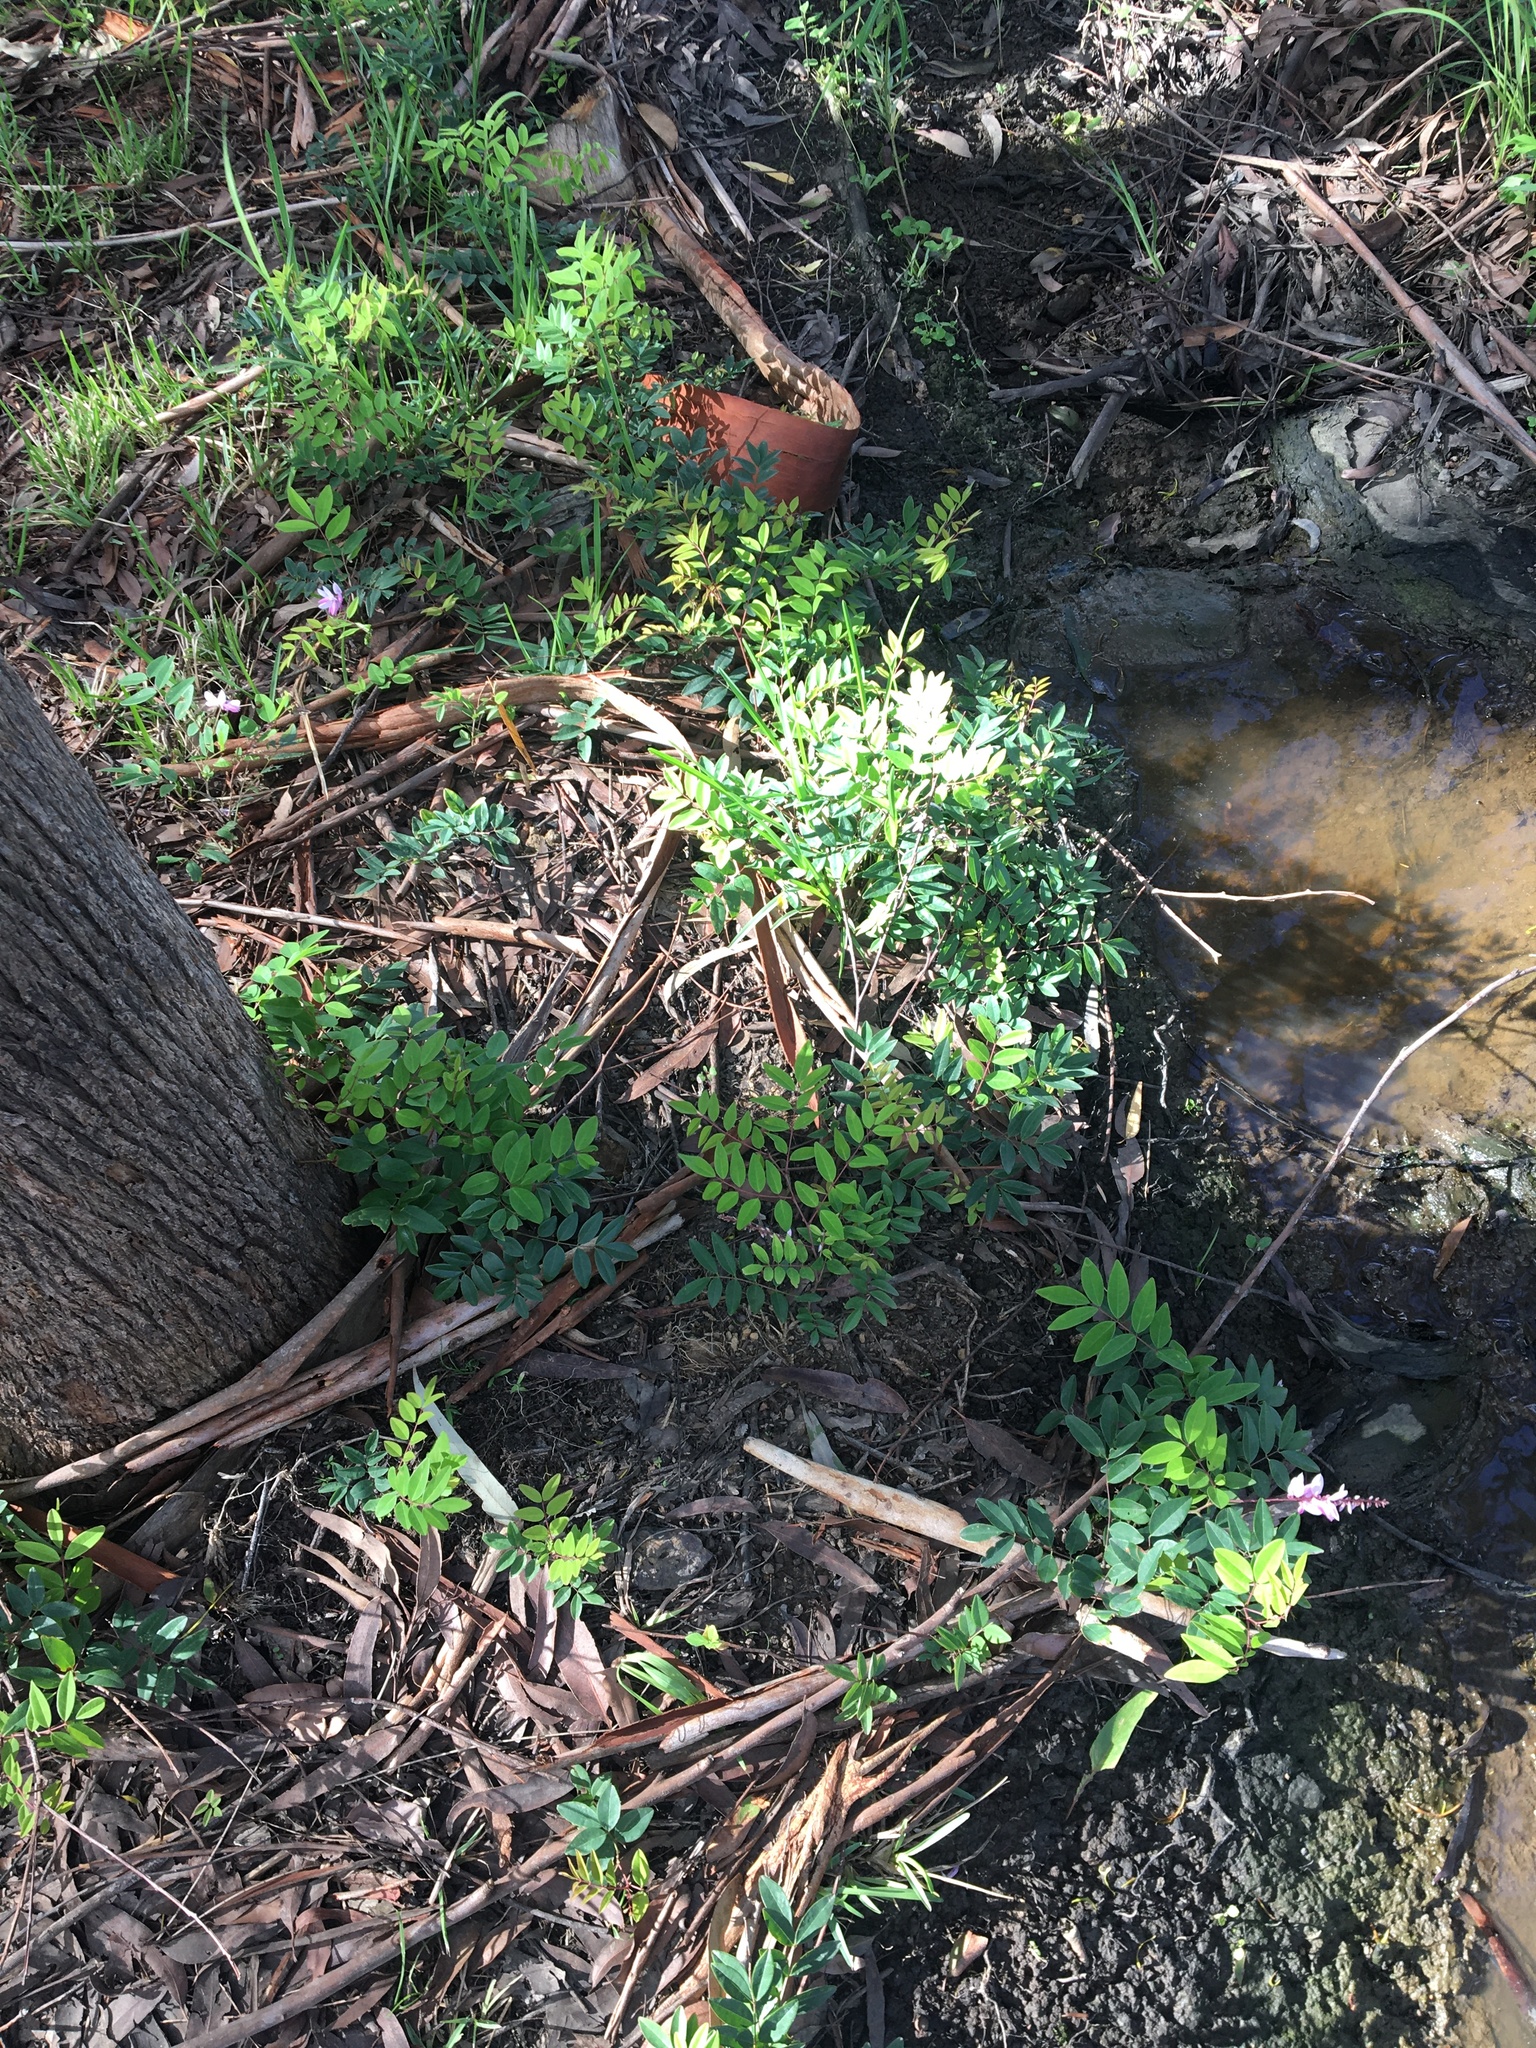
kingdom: Plantae
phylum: Tracheophyta
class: Magnoliopsida
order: Fabales
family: Fabaceae
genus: Indigofera
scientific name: Indigofera incarnata
